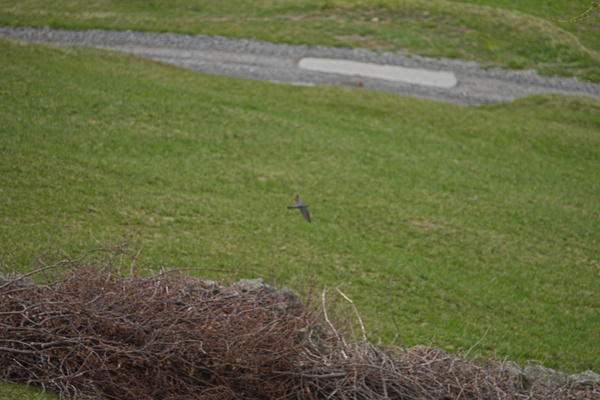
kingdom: Animalia
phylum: Chordata
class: Aves
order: Cuculiformes
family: Cuculidae
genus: Cuculus
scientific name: Cuculus canorus
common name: Common cuckoo
